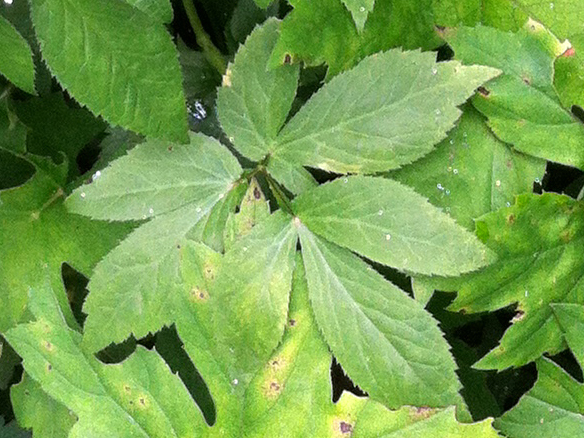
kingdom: Plantae
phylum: Tracheophyta
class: Magnoliopsida
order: Apiales
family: Apiaceae
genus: Aegopodium
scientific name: Aegopodium podagraria
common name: Ground-elder
